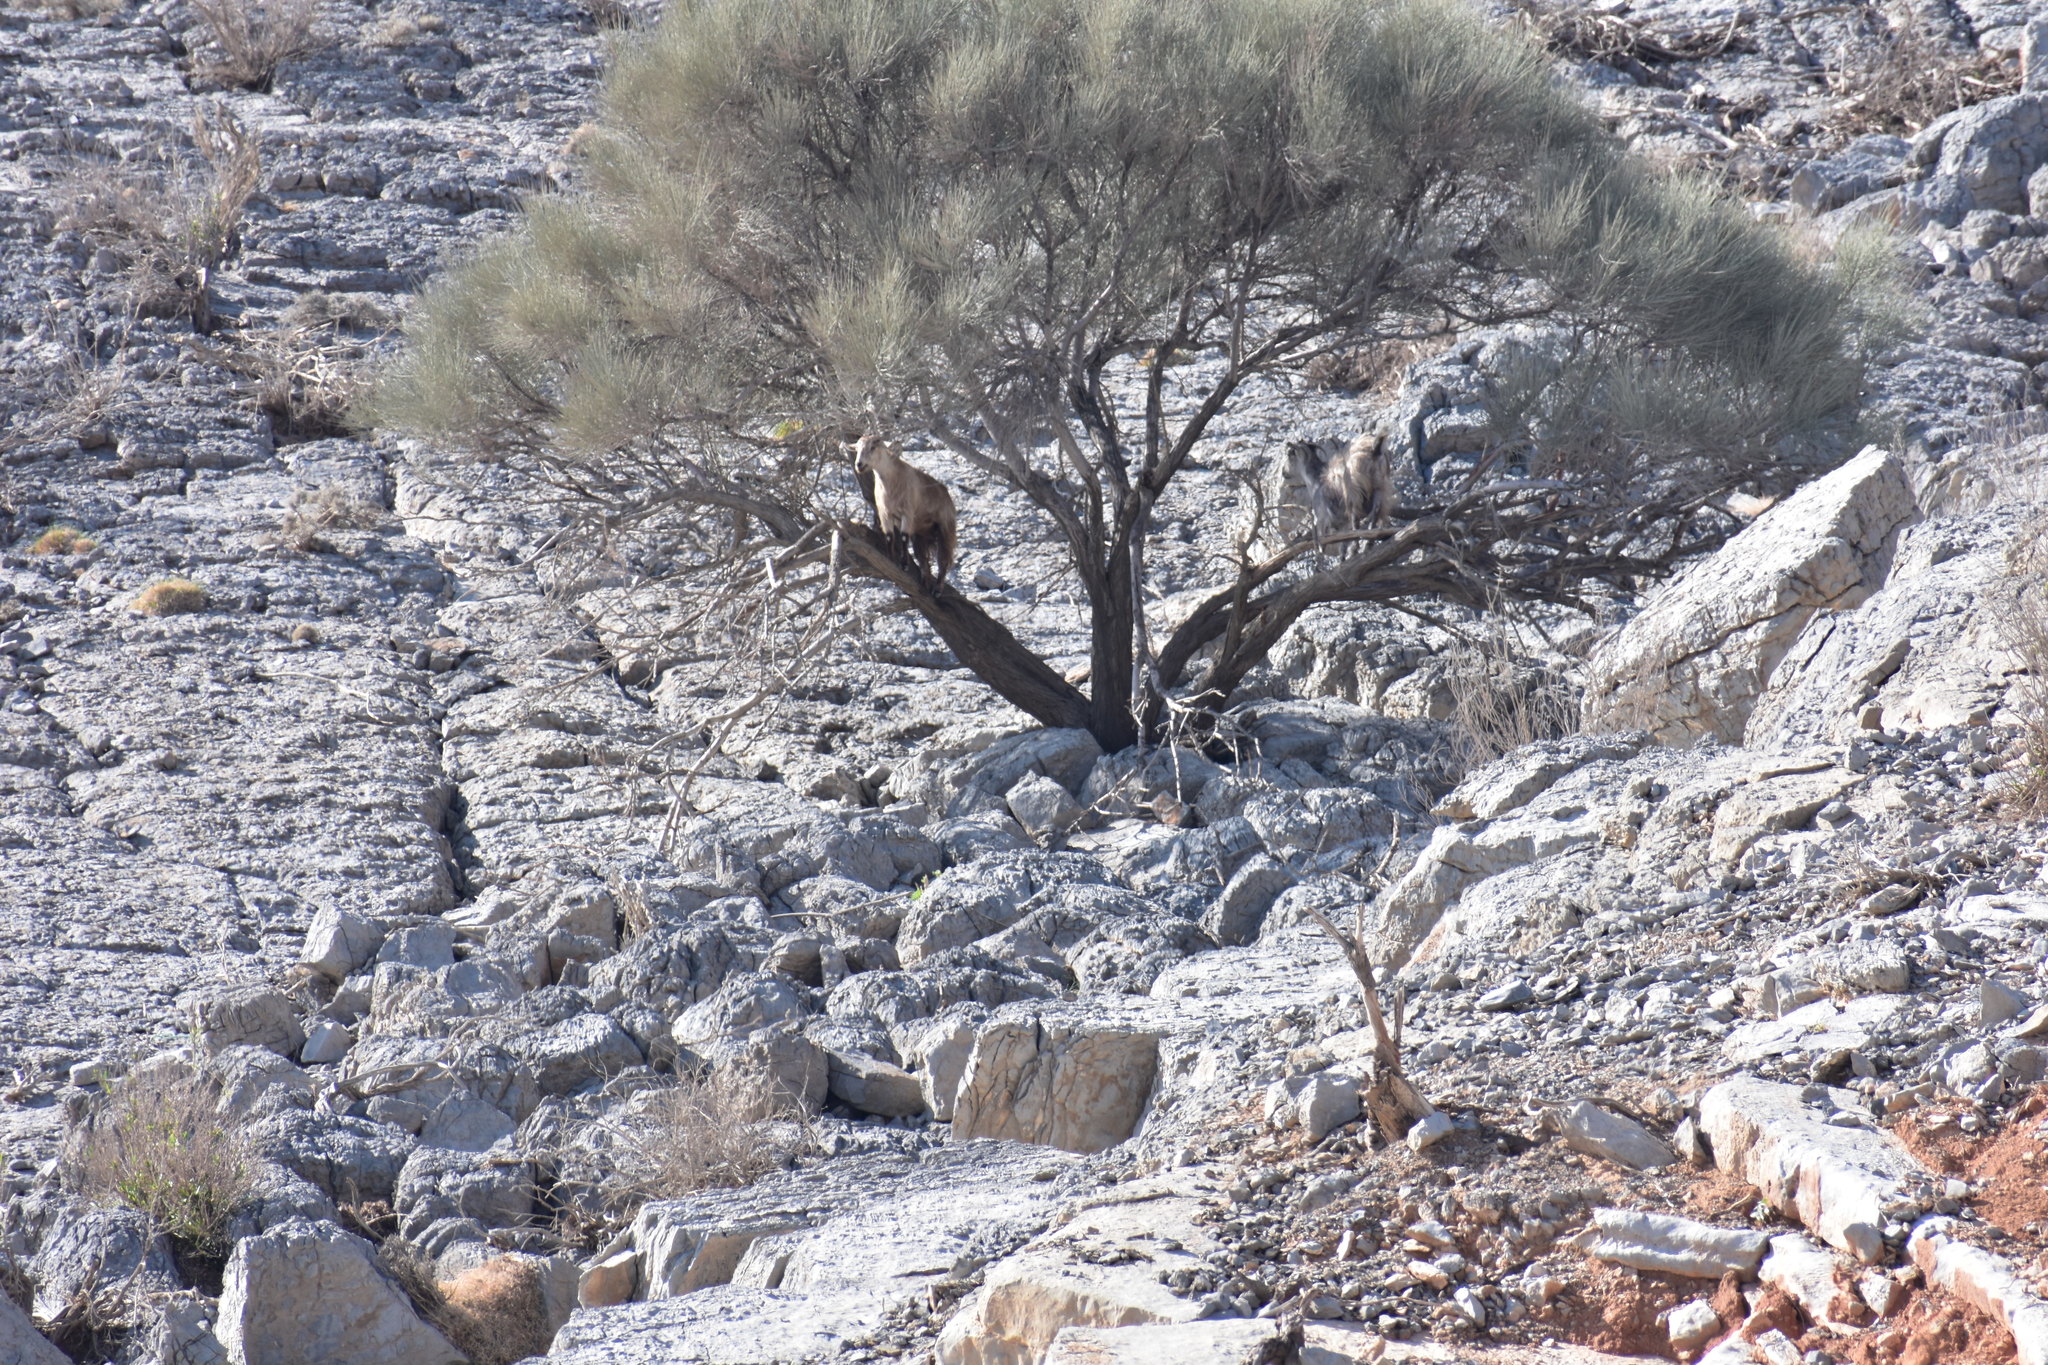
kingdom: Animalia
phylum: Chordata
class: Mammalia
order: Artiodactyla
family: Bovidae
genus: Capra
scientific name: Capra hircus
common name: Domestic goat
